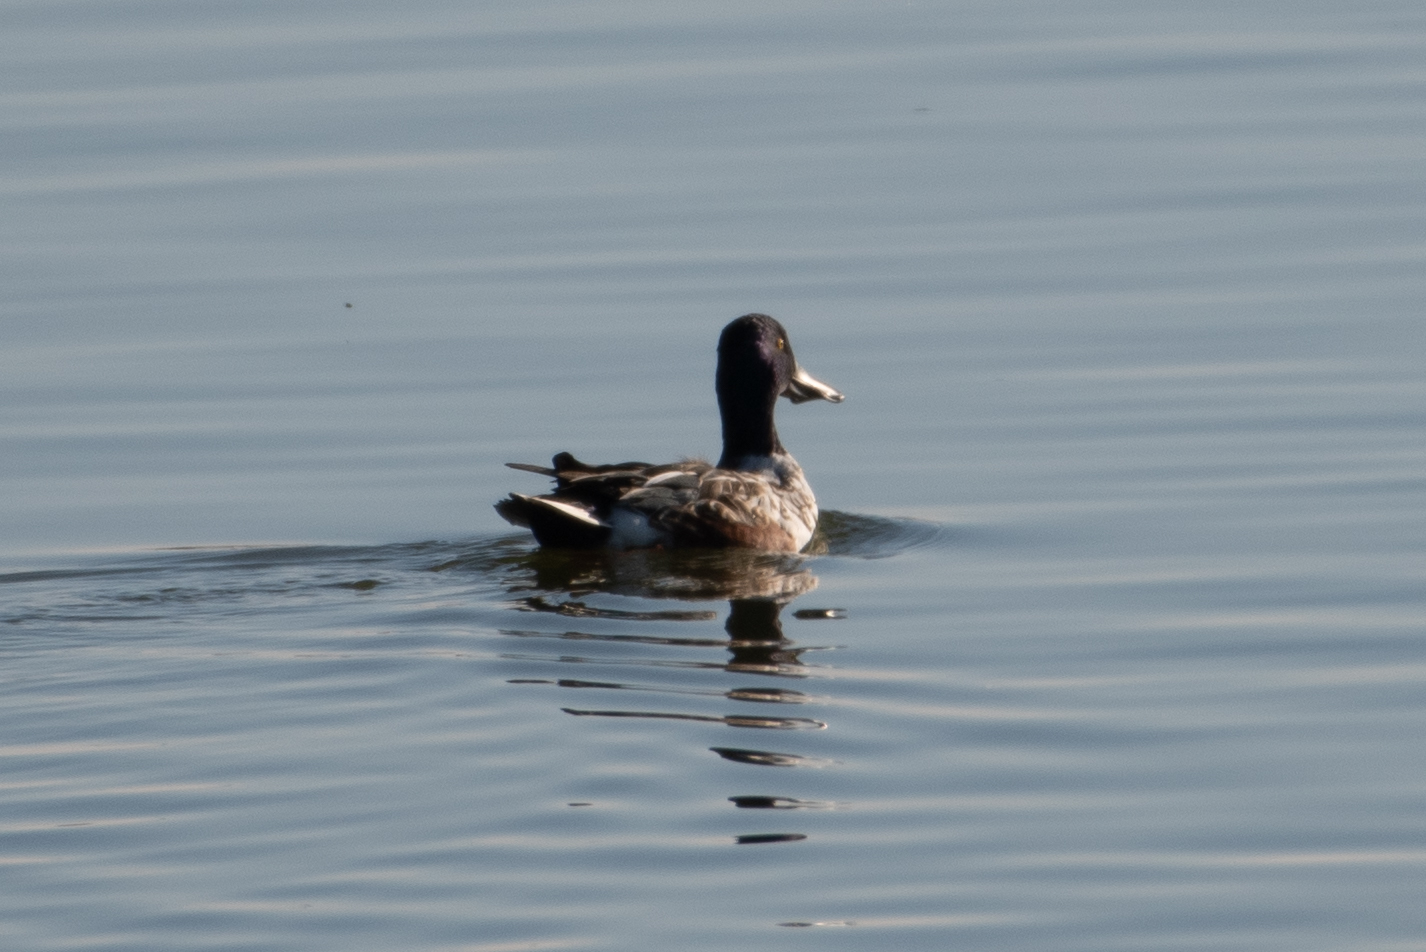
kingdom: Animalia
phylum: Chordata
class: Aves
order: Anseriformes
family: Anatidae
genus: Spatula
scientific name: Spatula clypeata
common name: Northern shoveler
